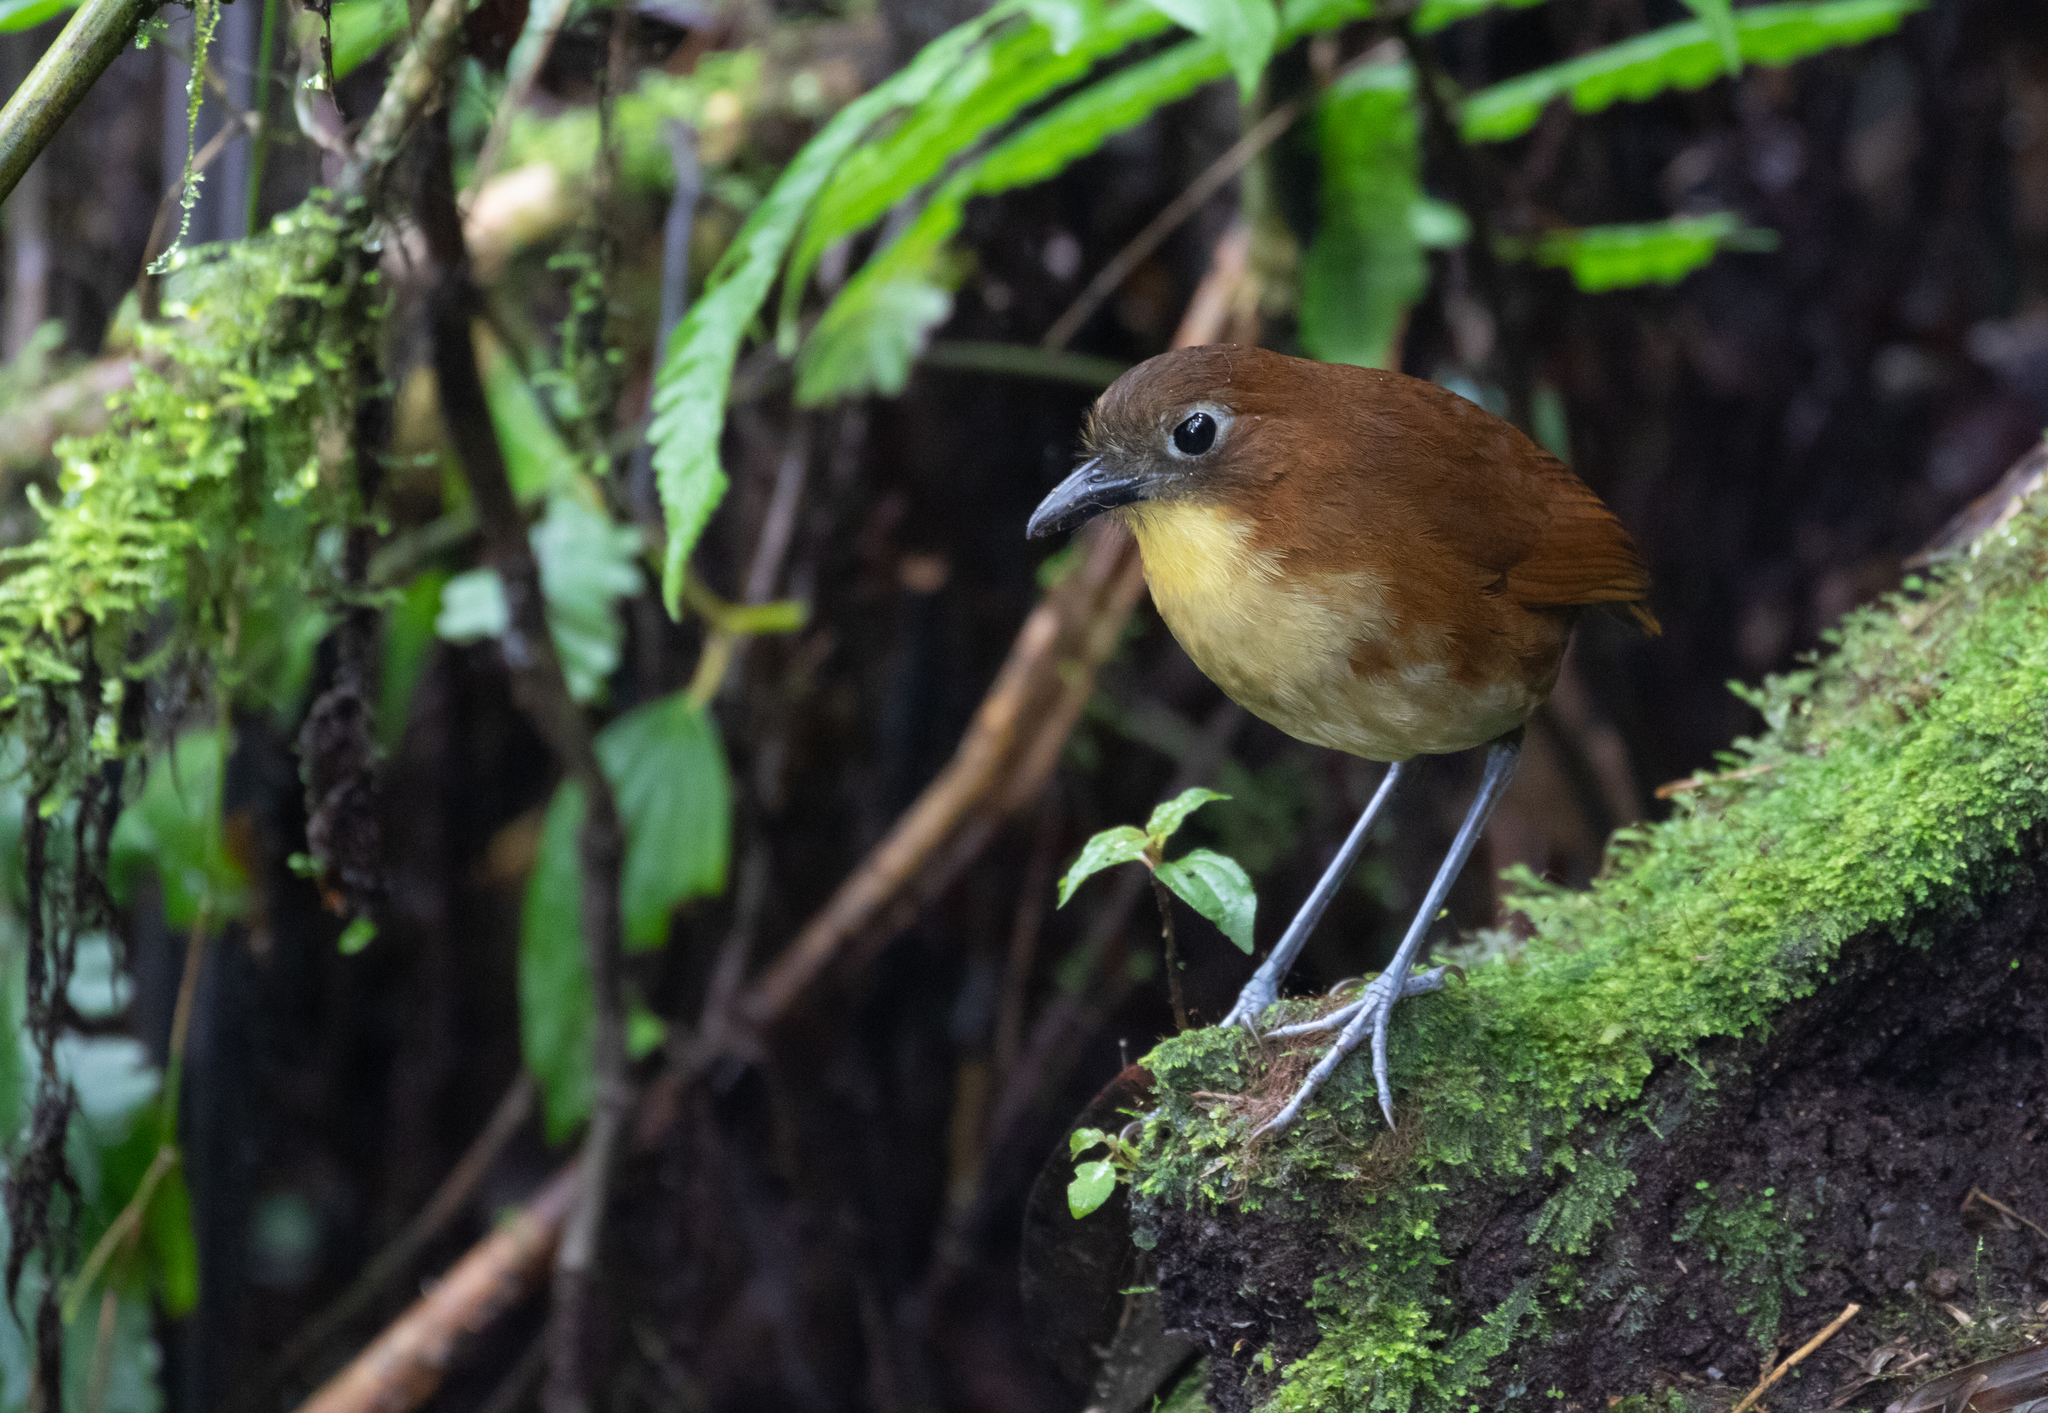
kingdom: Animalia
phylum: Chordata
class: Aves
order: Passeriformes
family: Grallariidae
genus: Grallaria
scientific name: Grallaria flavotincta
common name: Yellow-breasted antpitta
